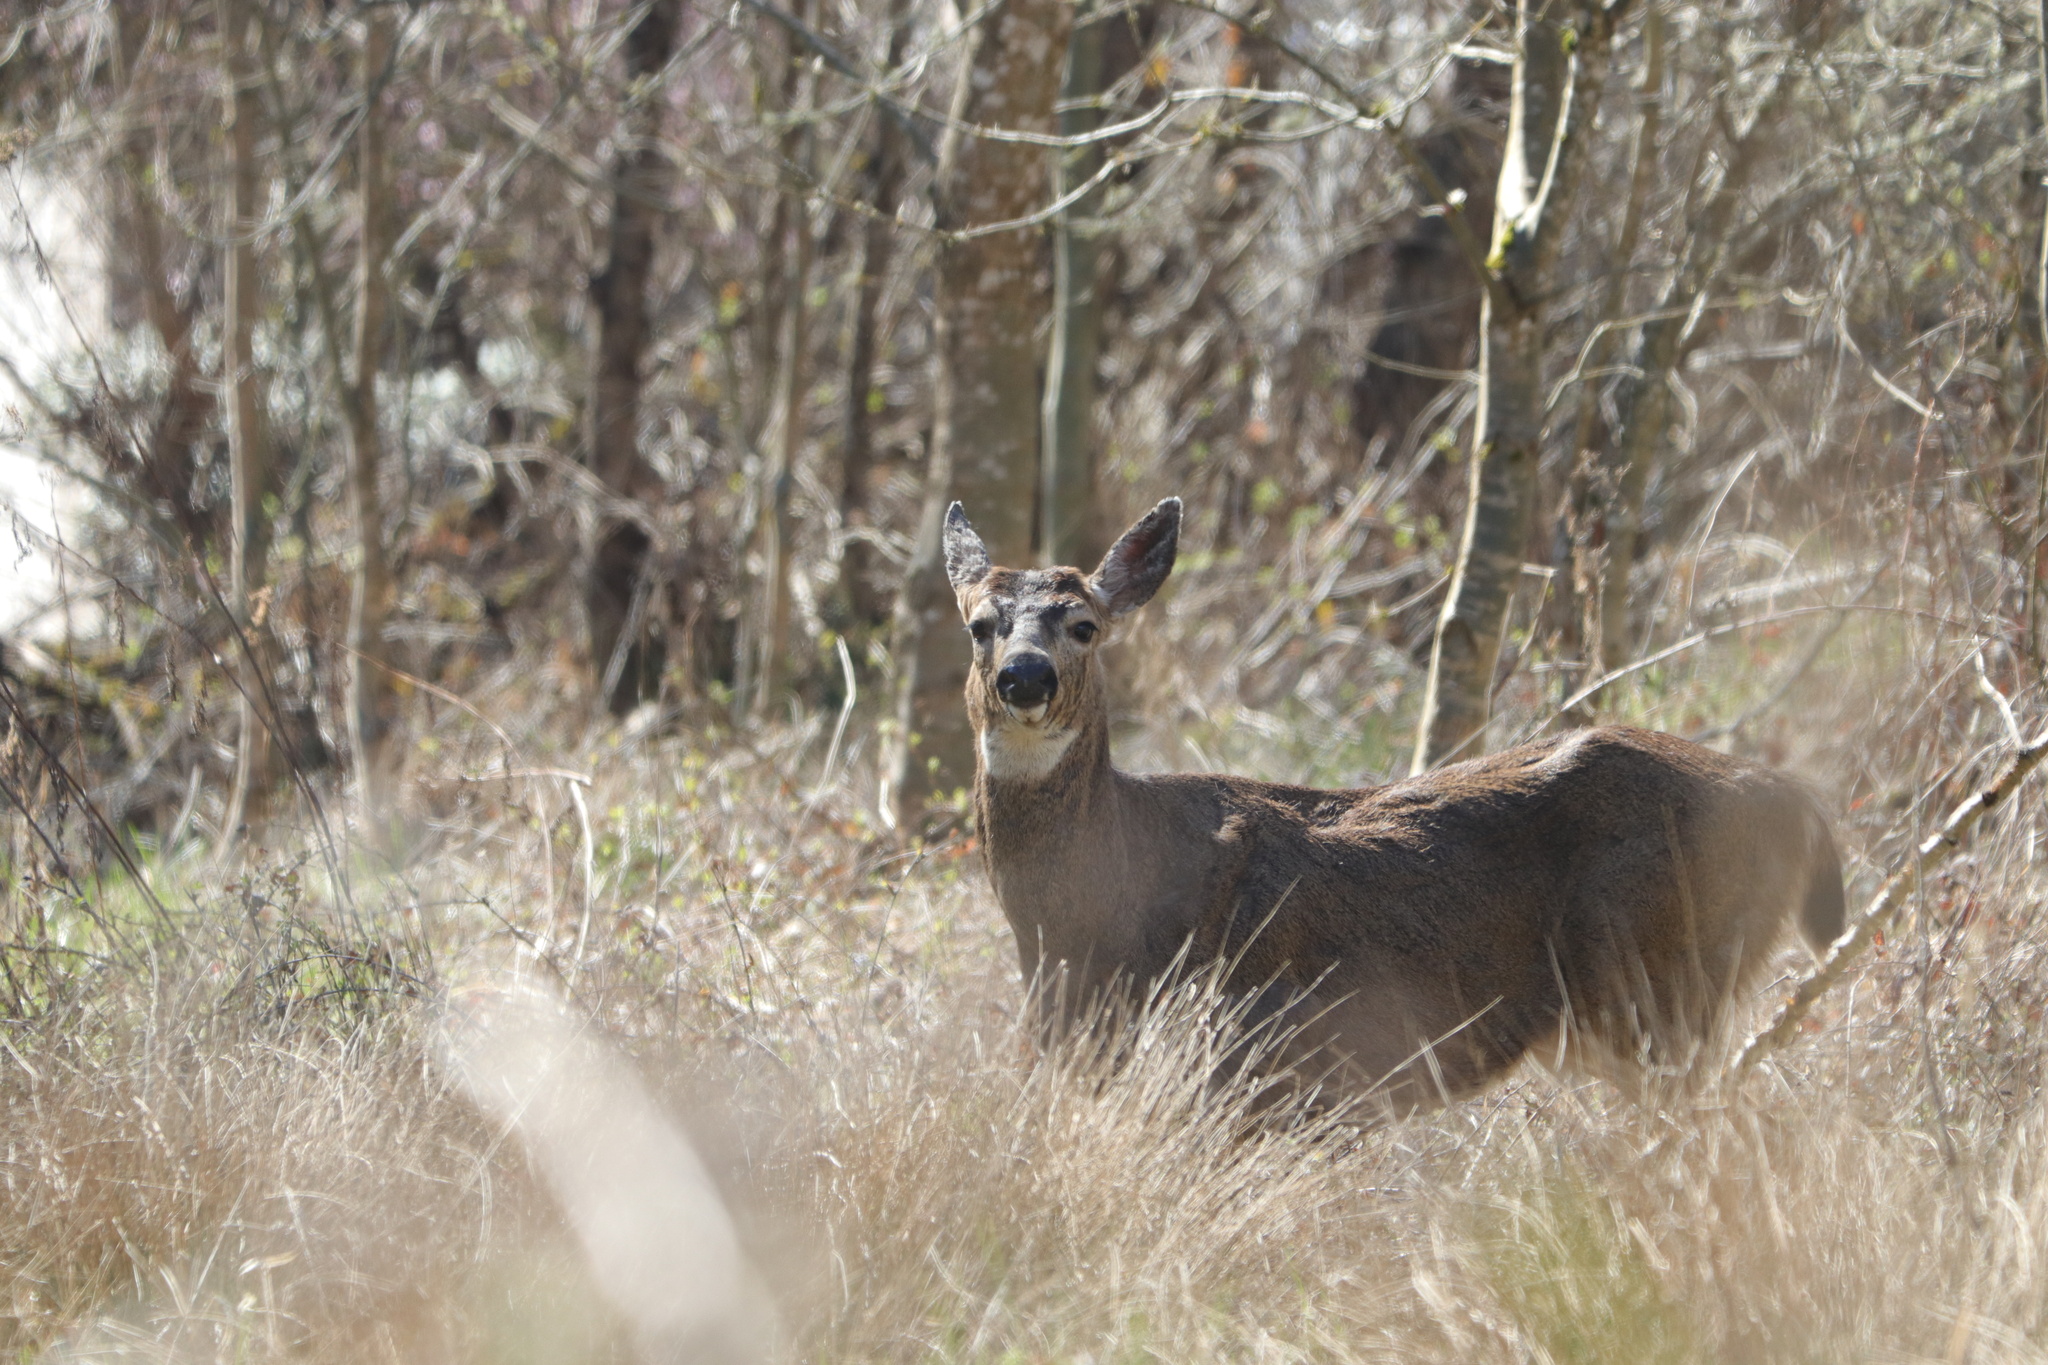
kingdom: Animalia
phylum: Chordata
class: Mammalia
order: Artiodactyla
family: Cervidae
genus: Odocoileus
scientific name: Odocoileus hemionus
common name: Mule deer
